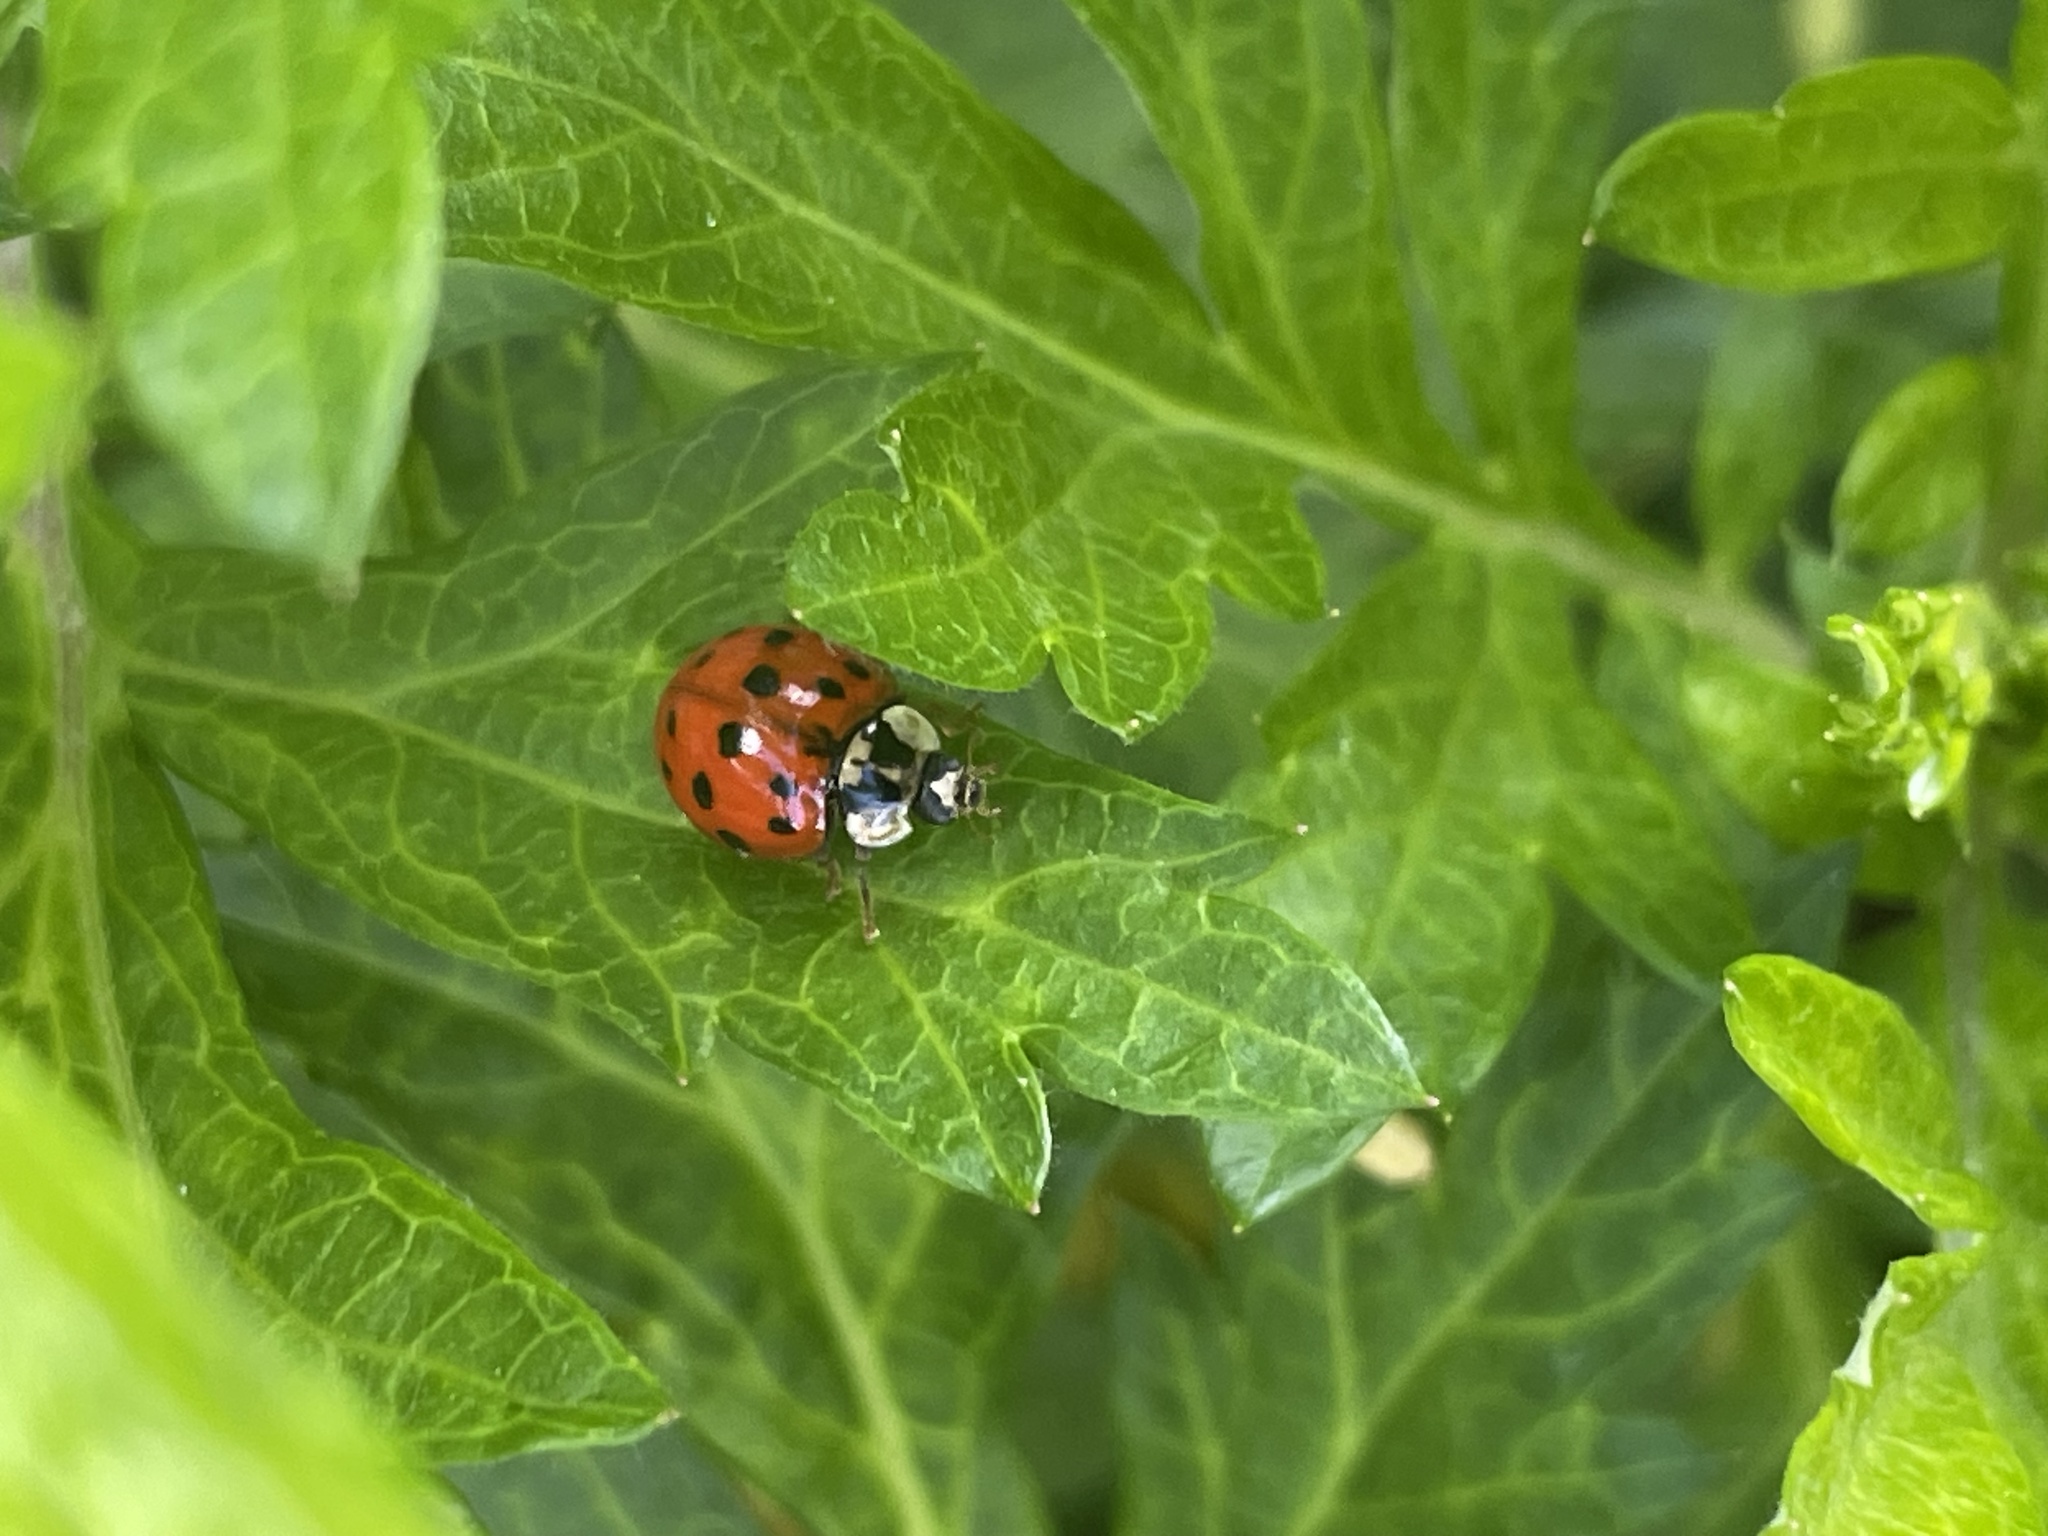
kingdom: Animalia
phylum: Arthropoda
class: Insecta
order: Coleoptera
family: Coccinellidae
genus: Harmonia
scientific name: Harmonia axyridis
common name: Harlequin ladybird
